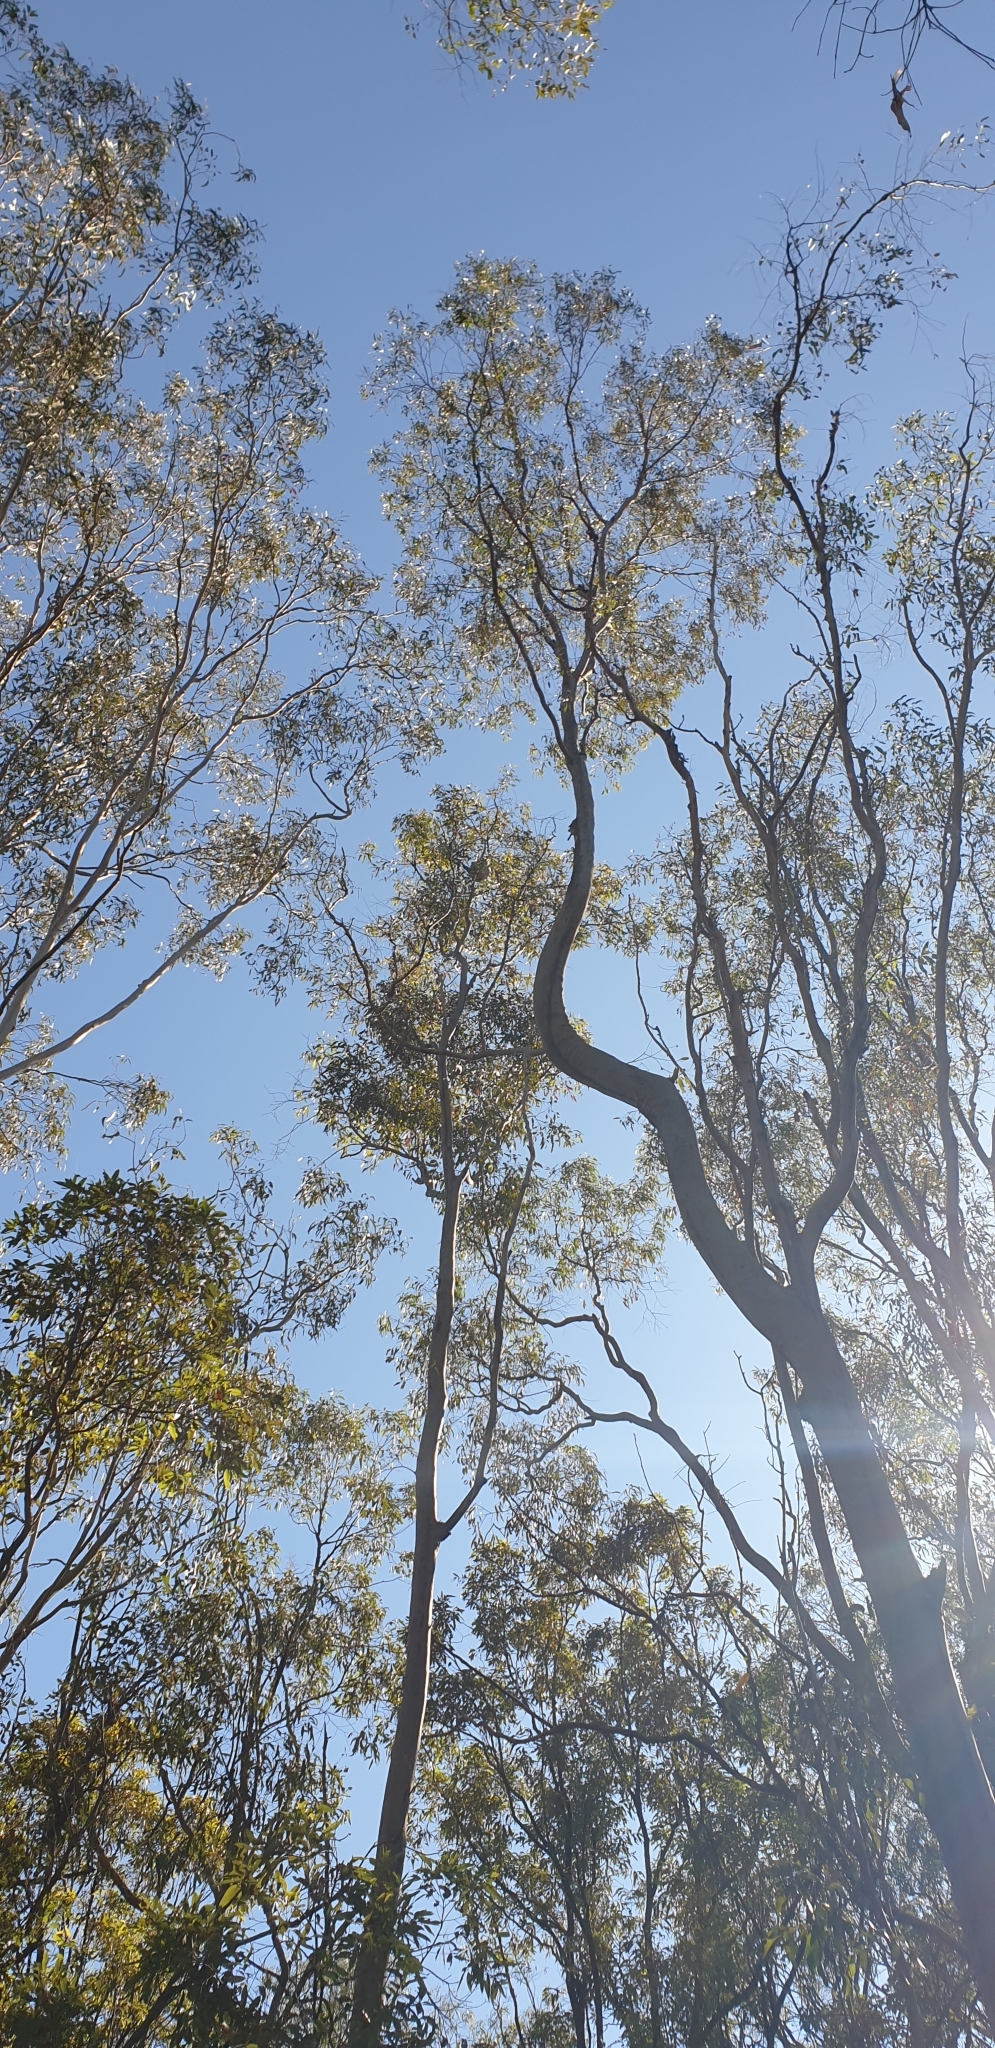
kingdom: Animalia
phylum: Chordata
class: Mammalia
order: Diprotodontia
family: Phascolarctidae
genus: Phascolarctos
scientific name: Phascolarctos cinereus
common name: Koala
